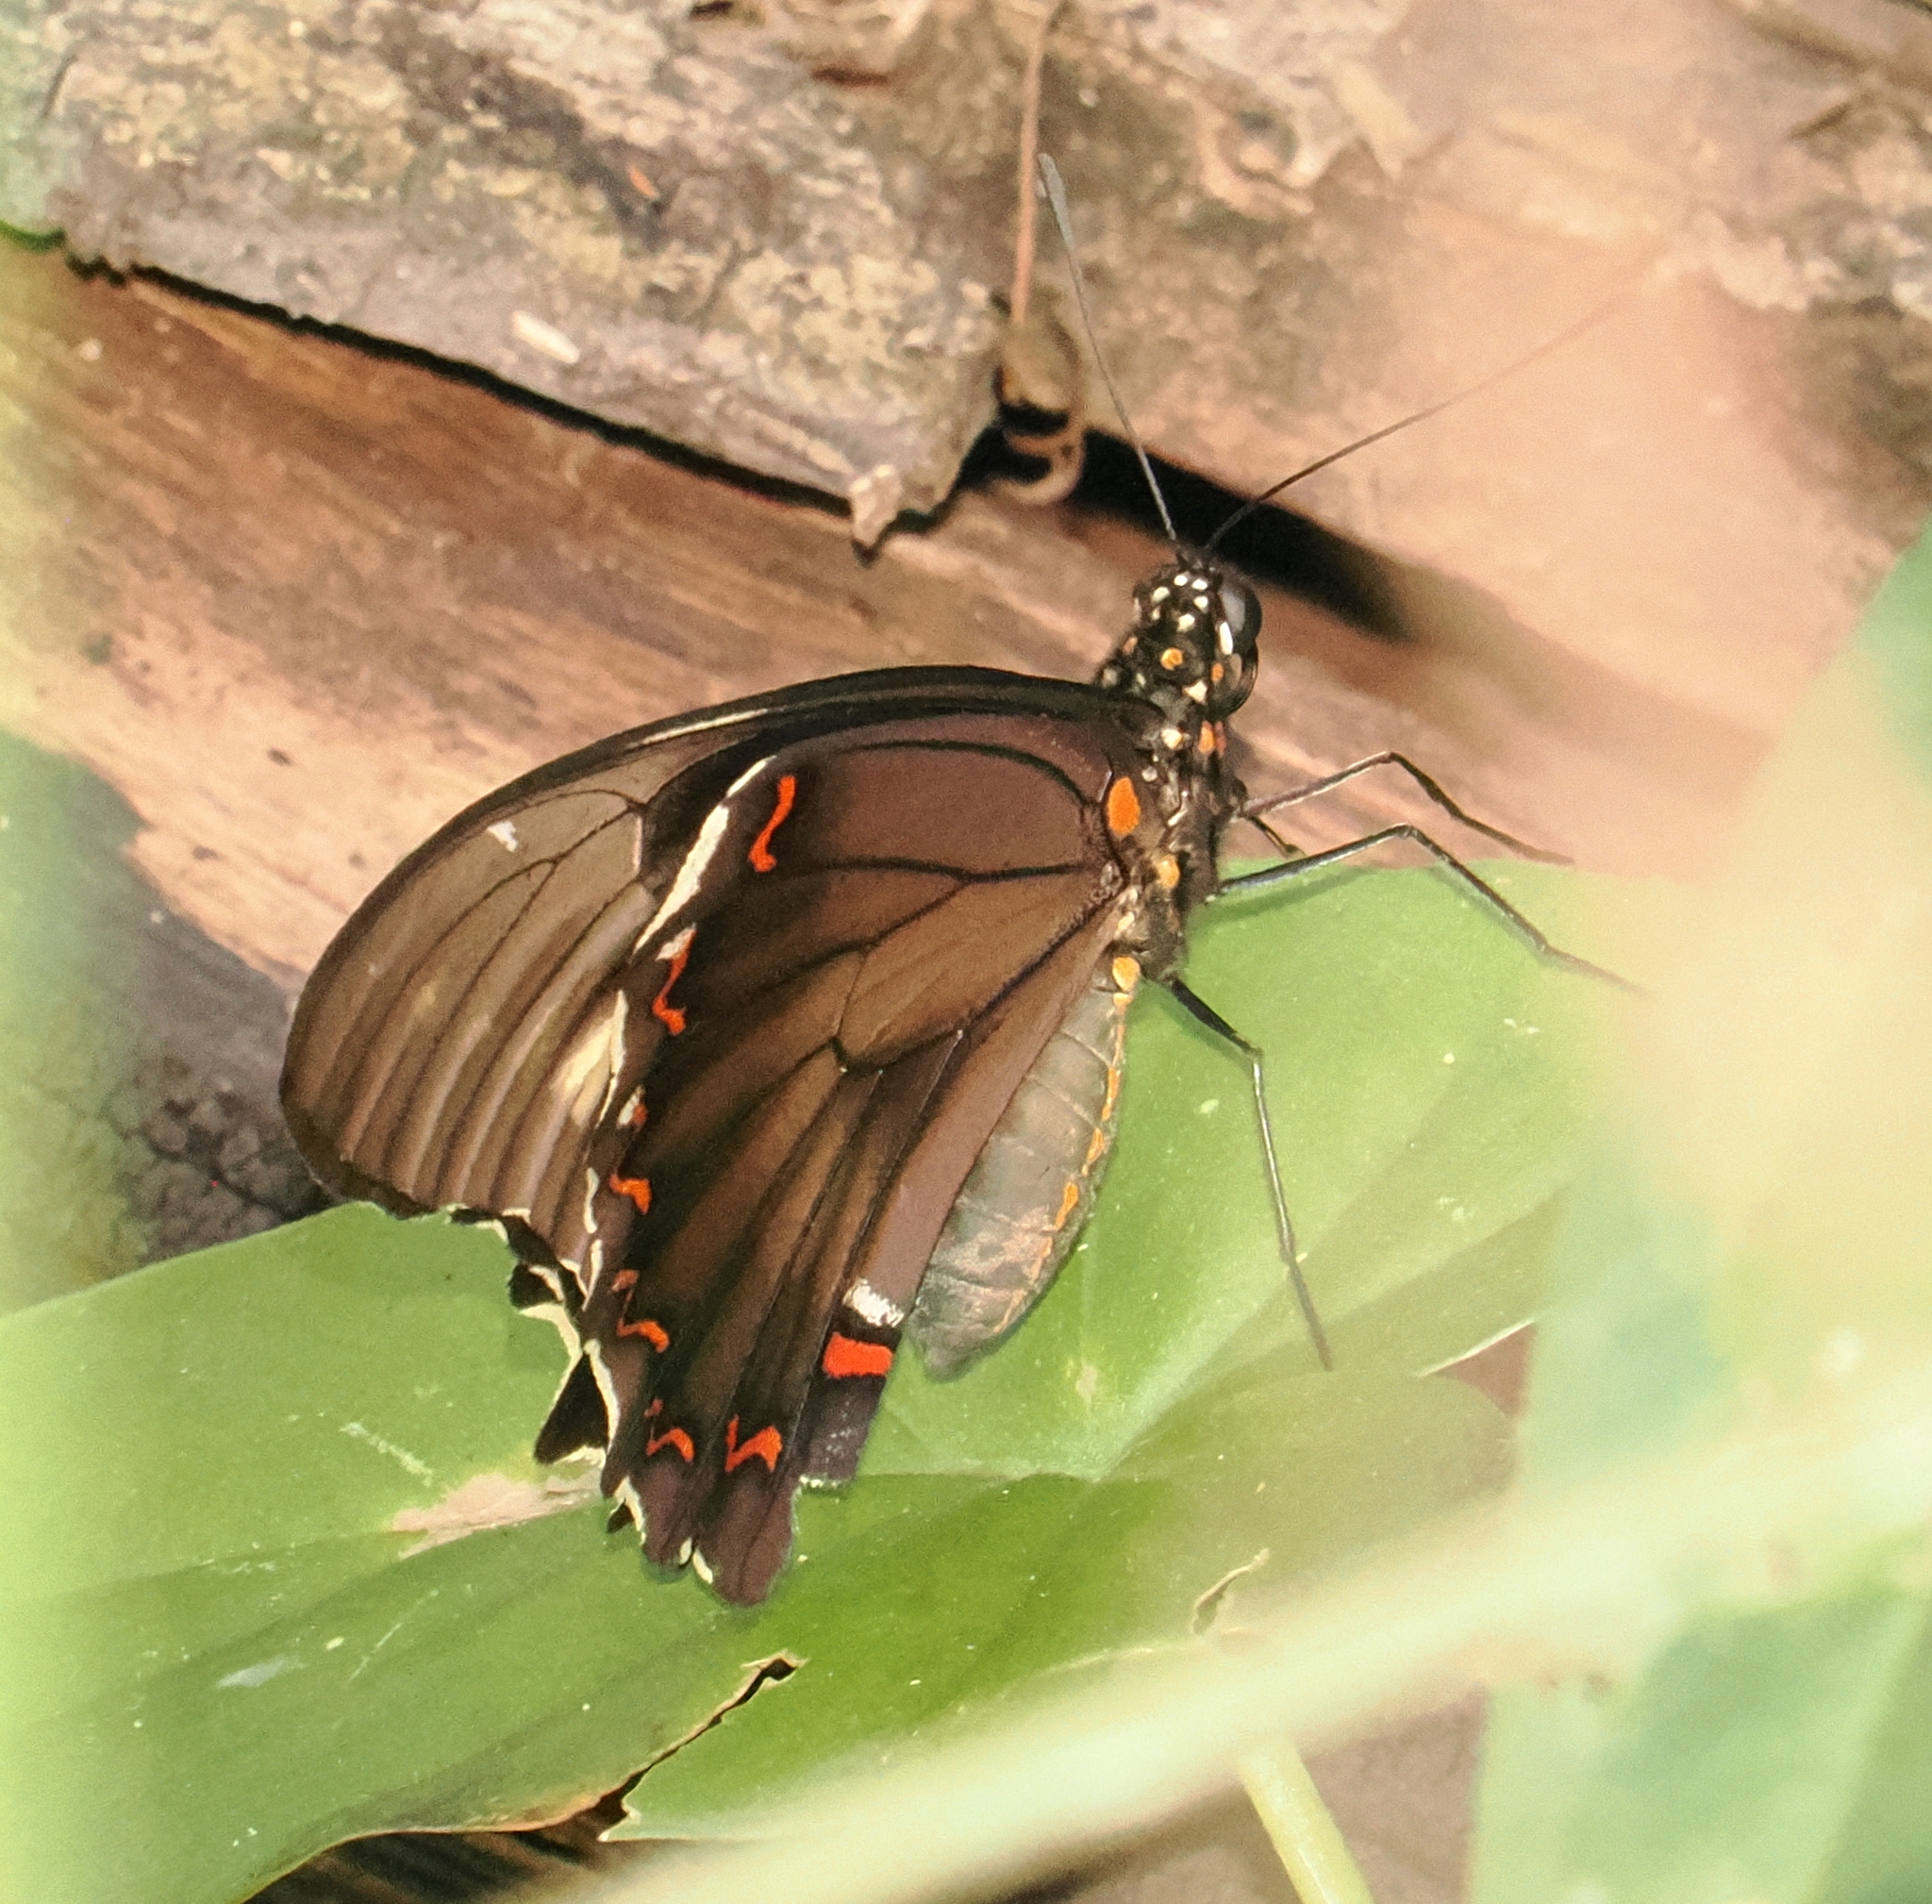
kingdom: Animalia
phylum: Arthropoda
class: Insecta
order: Lepidoptera
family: Papilionidae
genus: Battus
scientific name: Battus polydamas
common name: Polydamas swallowtail
